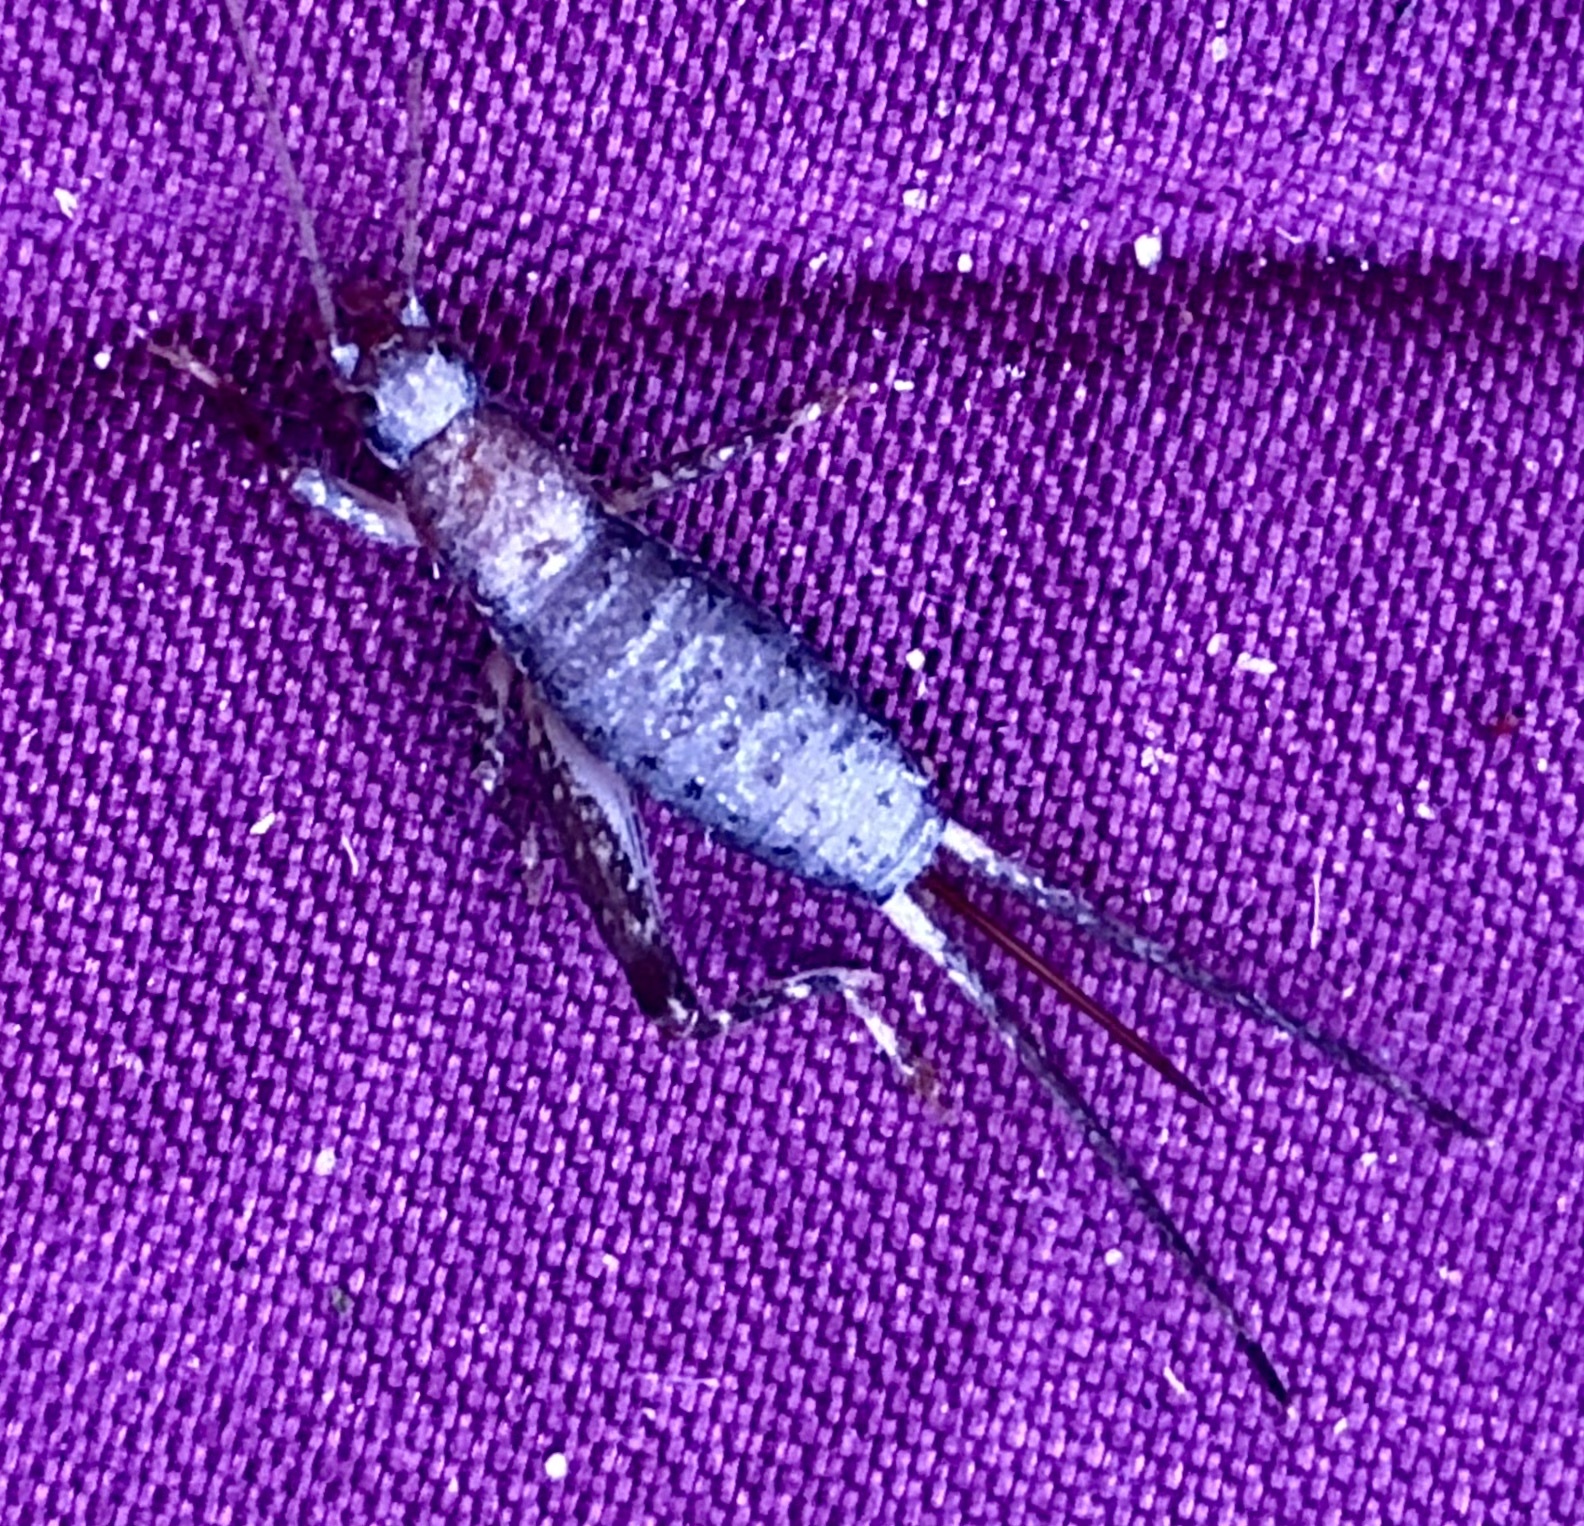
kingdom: Animalia
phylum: Arthropoda
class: Insecta
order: Orthoptera
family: Mogoplistidae
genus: Cycloptilum
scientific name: Cycloptilum trigonipalpum
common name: Forest scaly cricket
